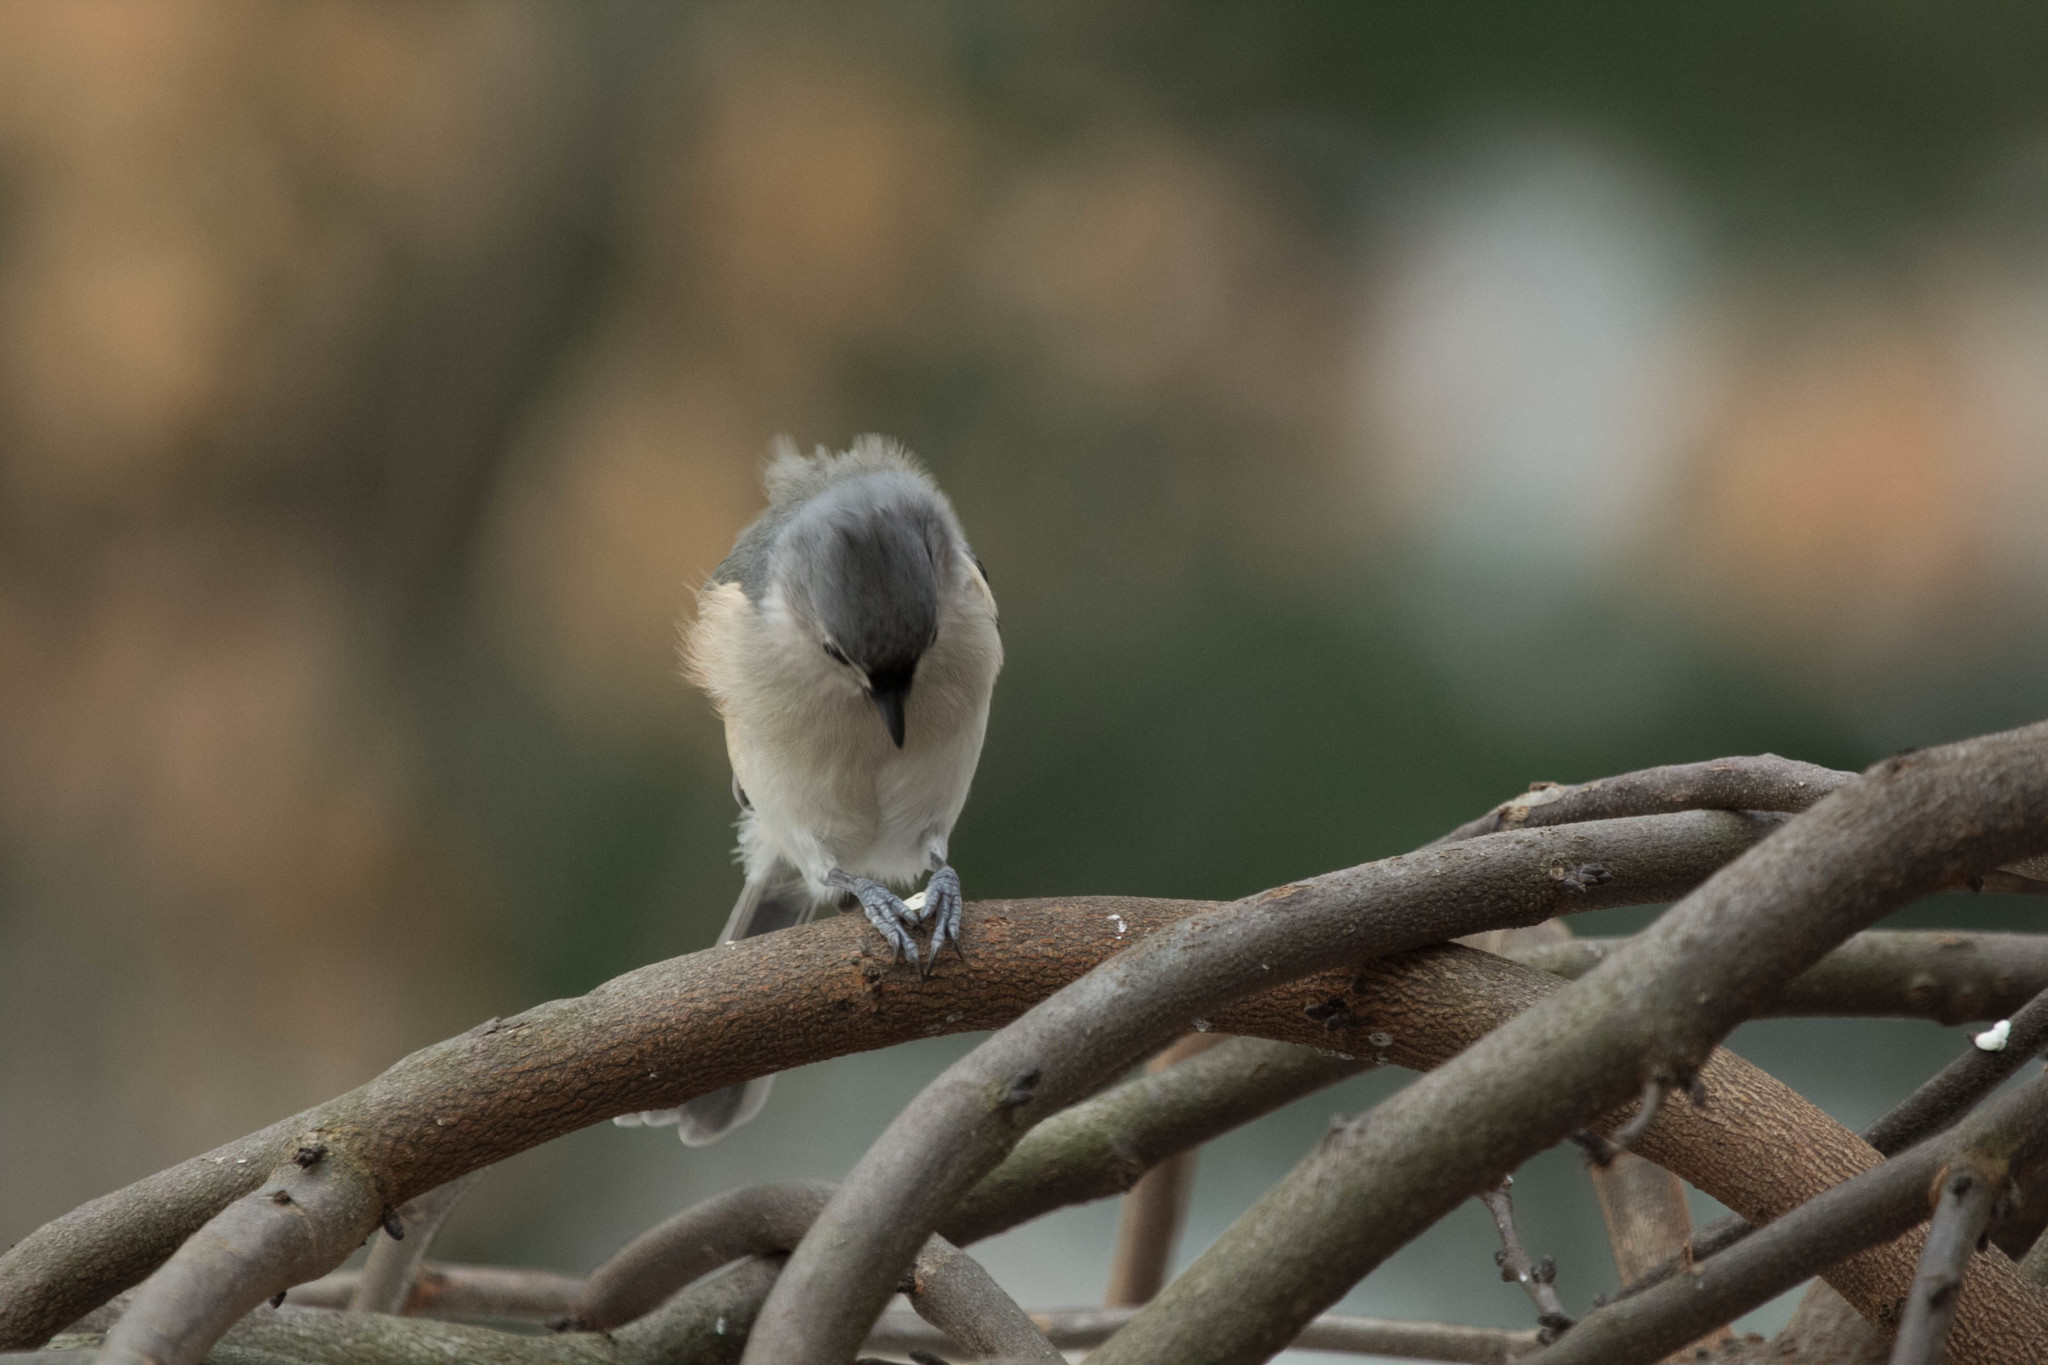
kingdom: Animalia
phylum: Chordata
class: Aves
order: Passeriformes
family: Paridae
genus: Baeolophus
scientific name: Baeolophus bicolor
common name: Tufted titmouse
